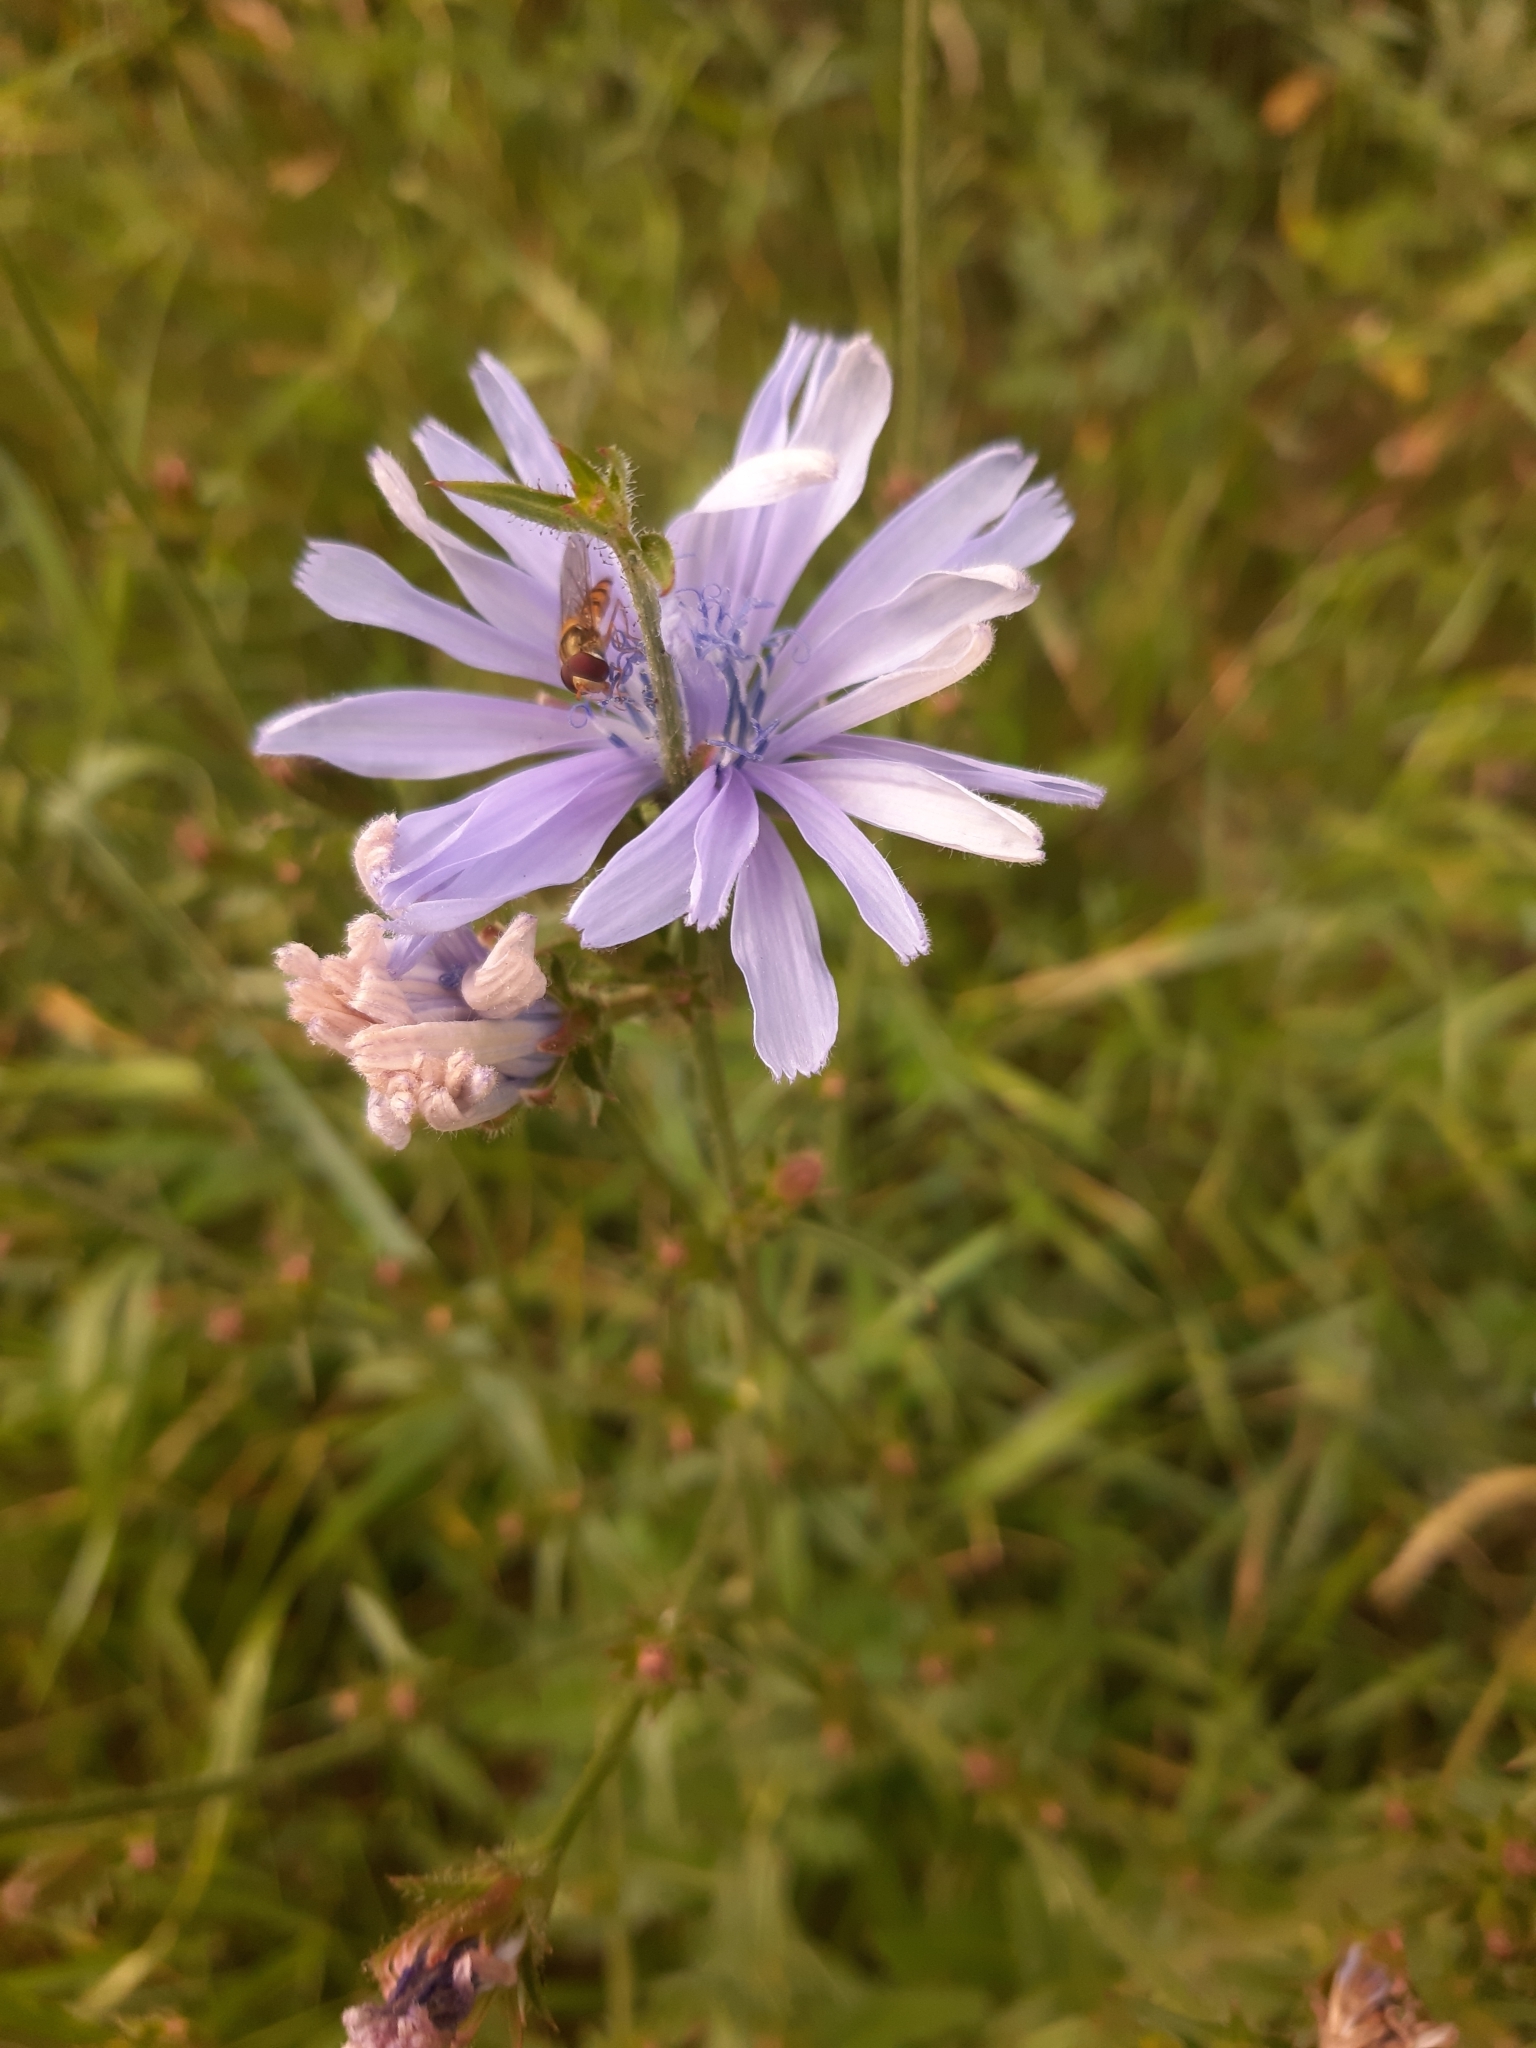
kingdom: Plantae
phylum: Tracheophyta
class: Magnoliopsida
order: Asterales
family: Asteraceae
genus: Cichorium
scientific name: Cichorium intybus
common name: Chicory
